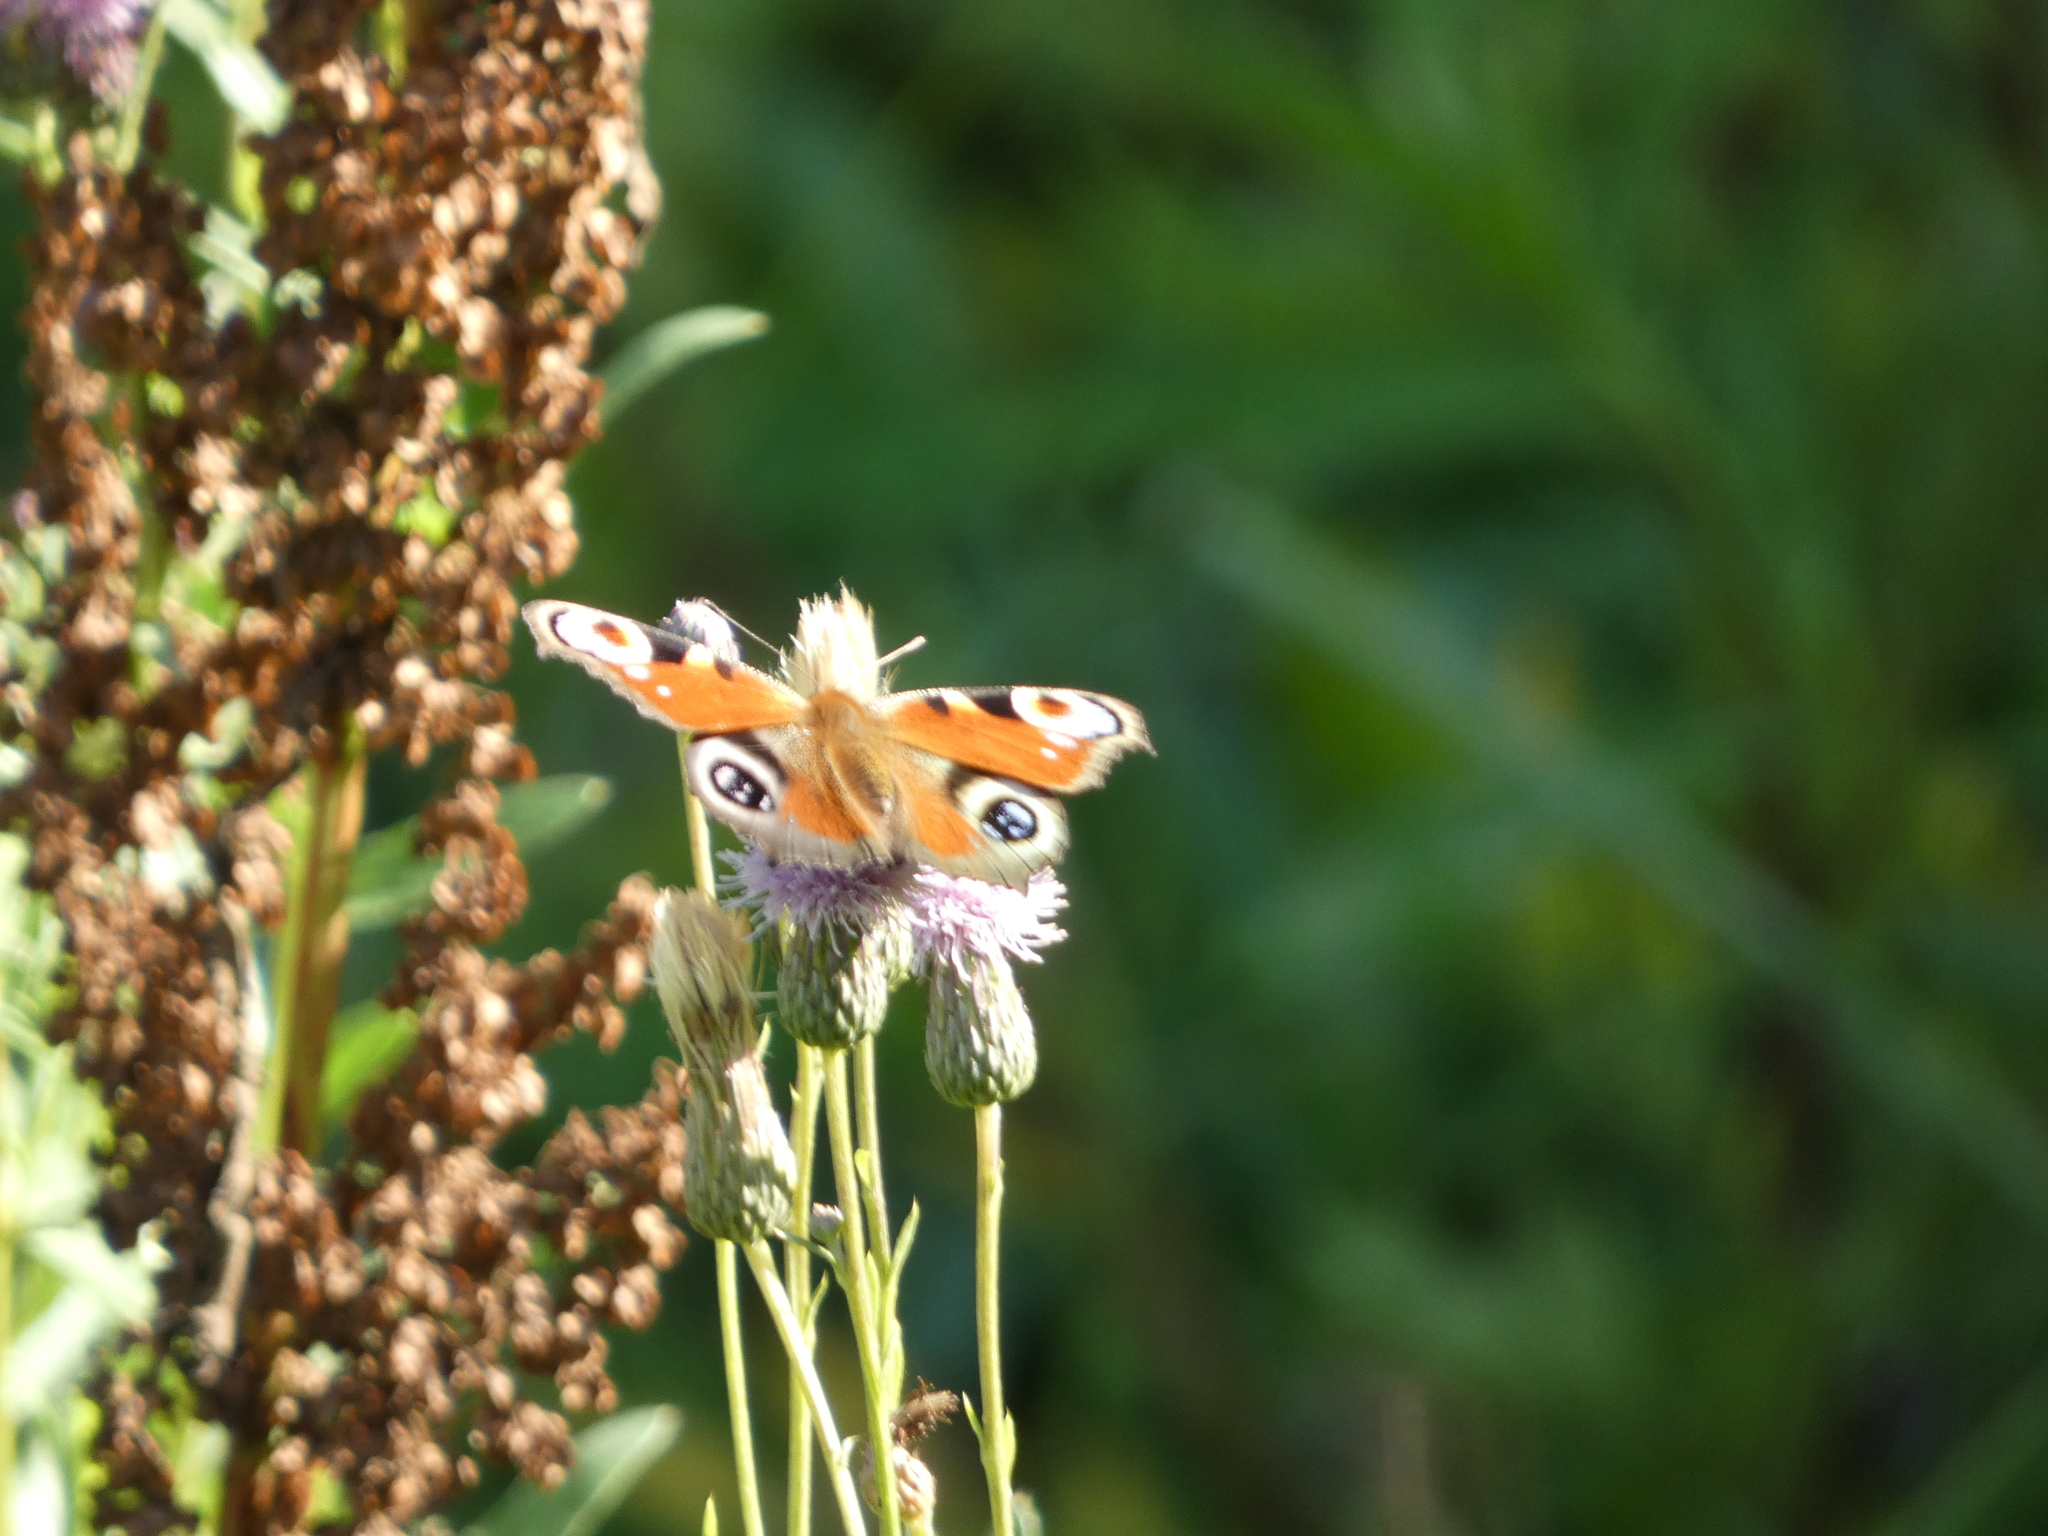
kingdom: Animalia
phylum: Arthropoda
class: Insecta
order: Lepidoptera
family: Nymphalidae
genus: Aglais
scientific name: Aglais io
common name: Peacock
